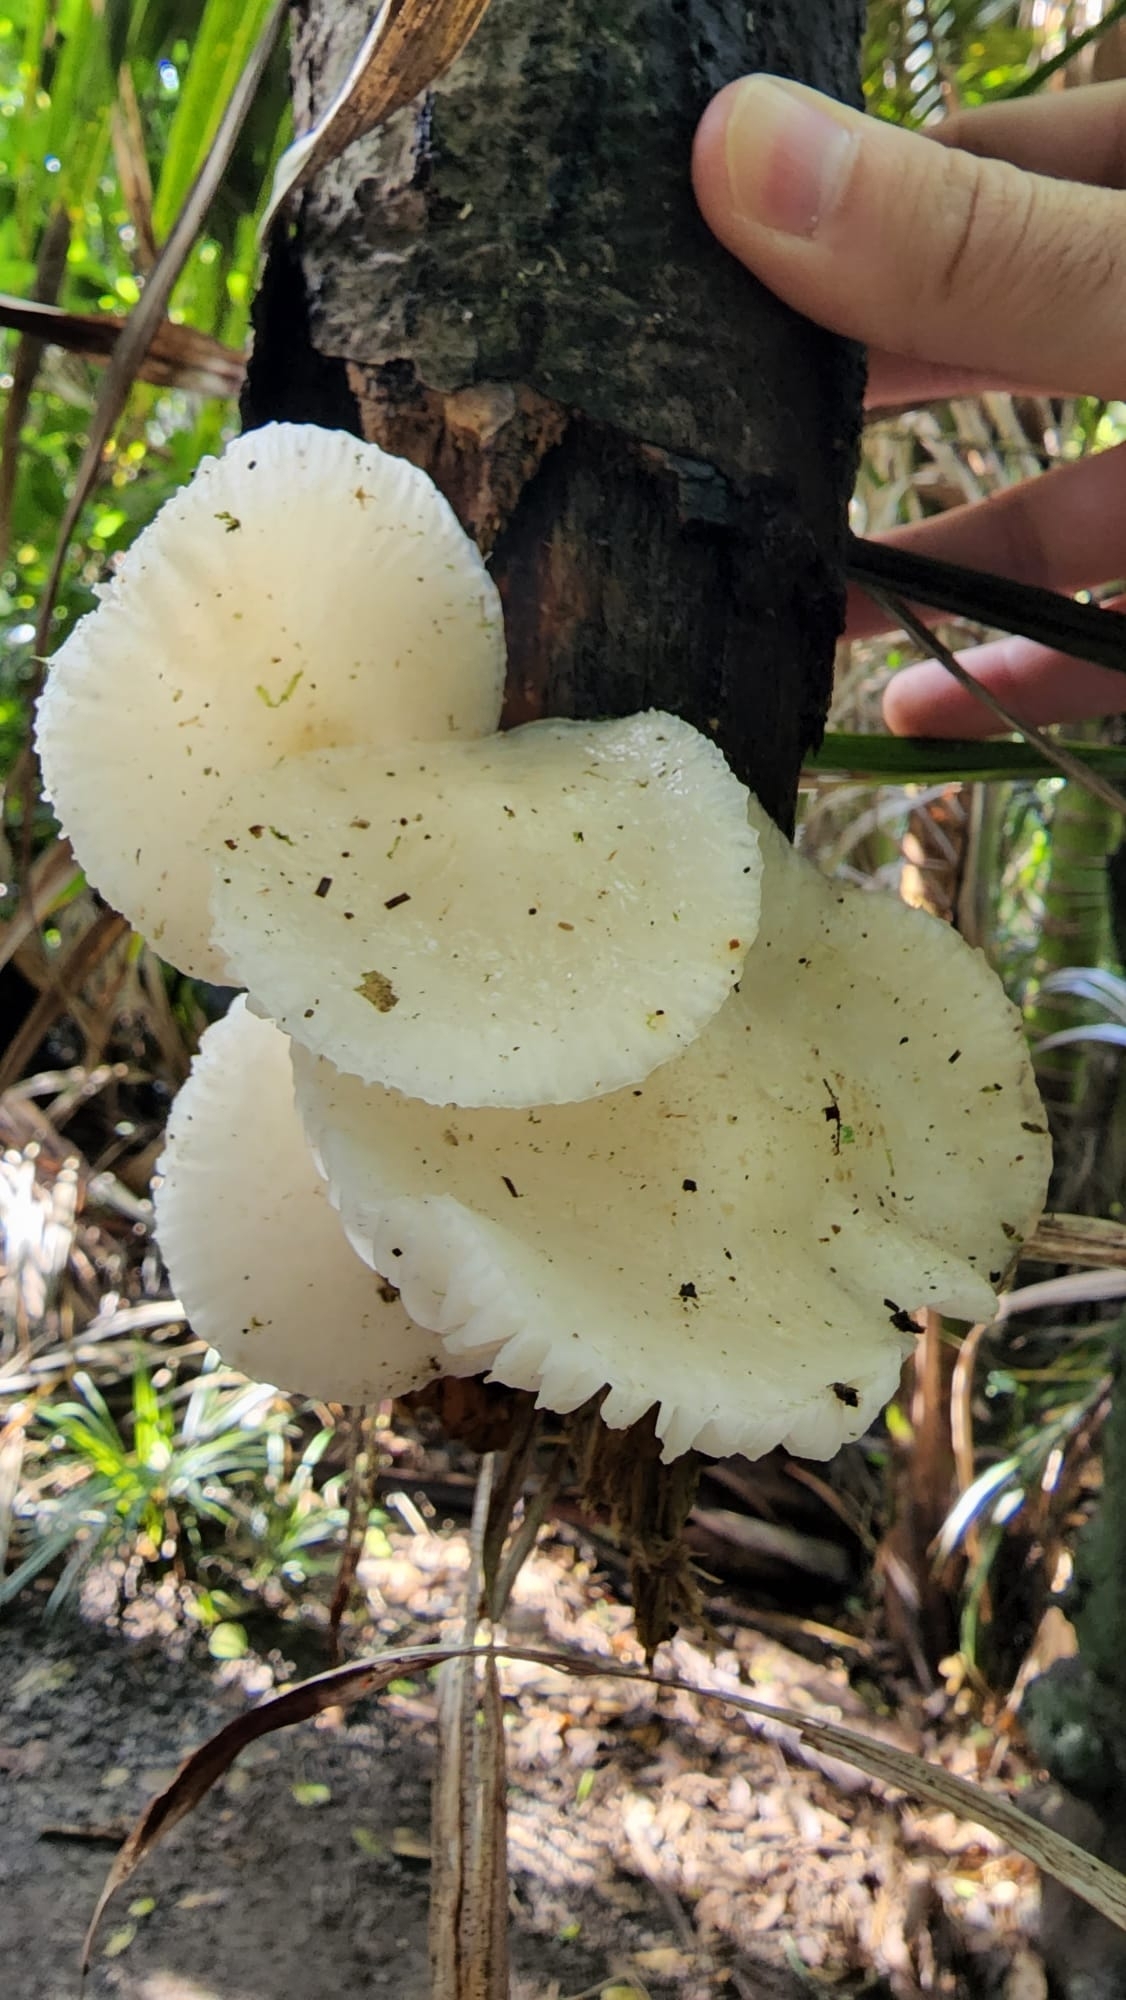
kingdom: Fungi
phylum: Basidiomycota
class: Agaricomycetes
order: Agaricales
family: Physalacriaceae
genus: Oudemansiella
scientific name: Oudemansiella australis
